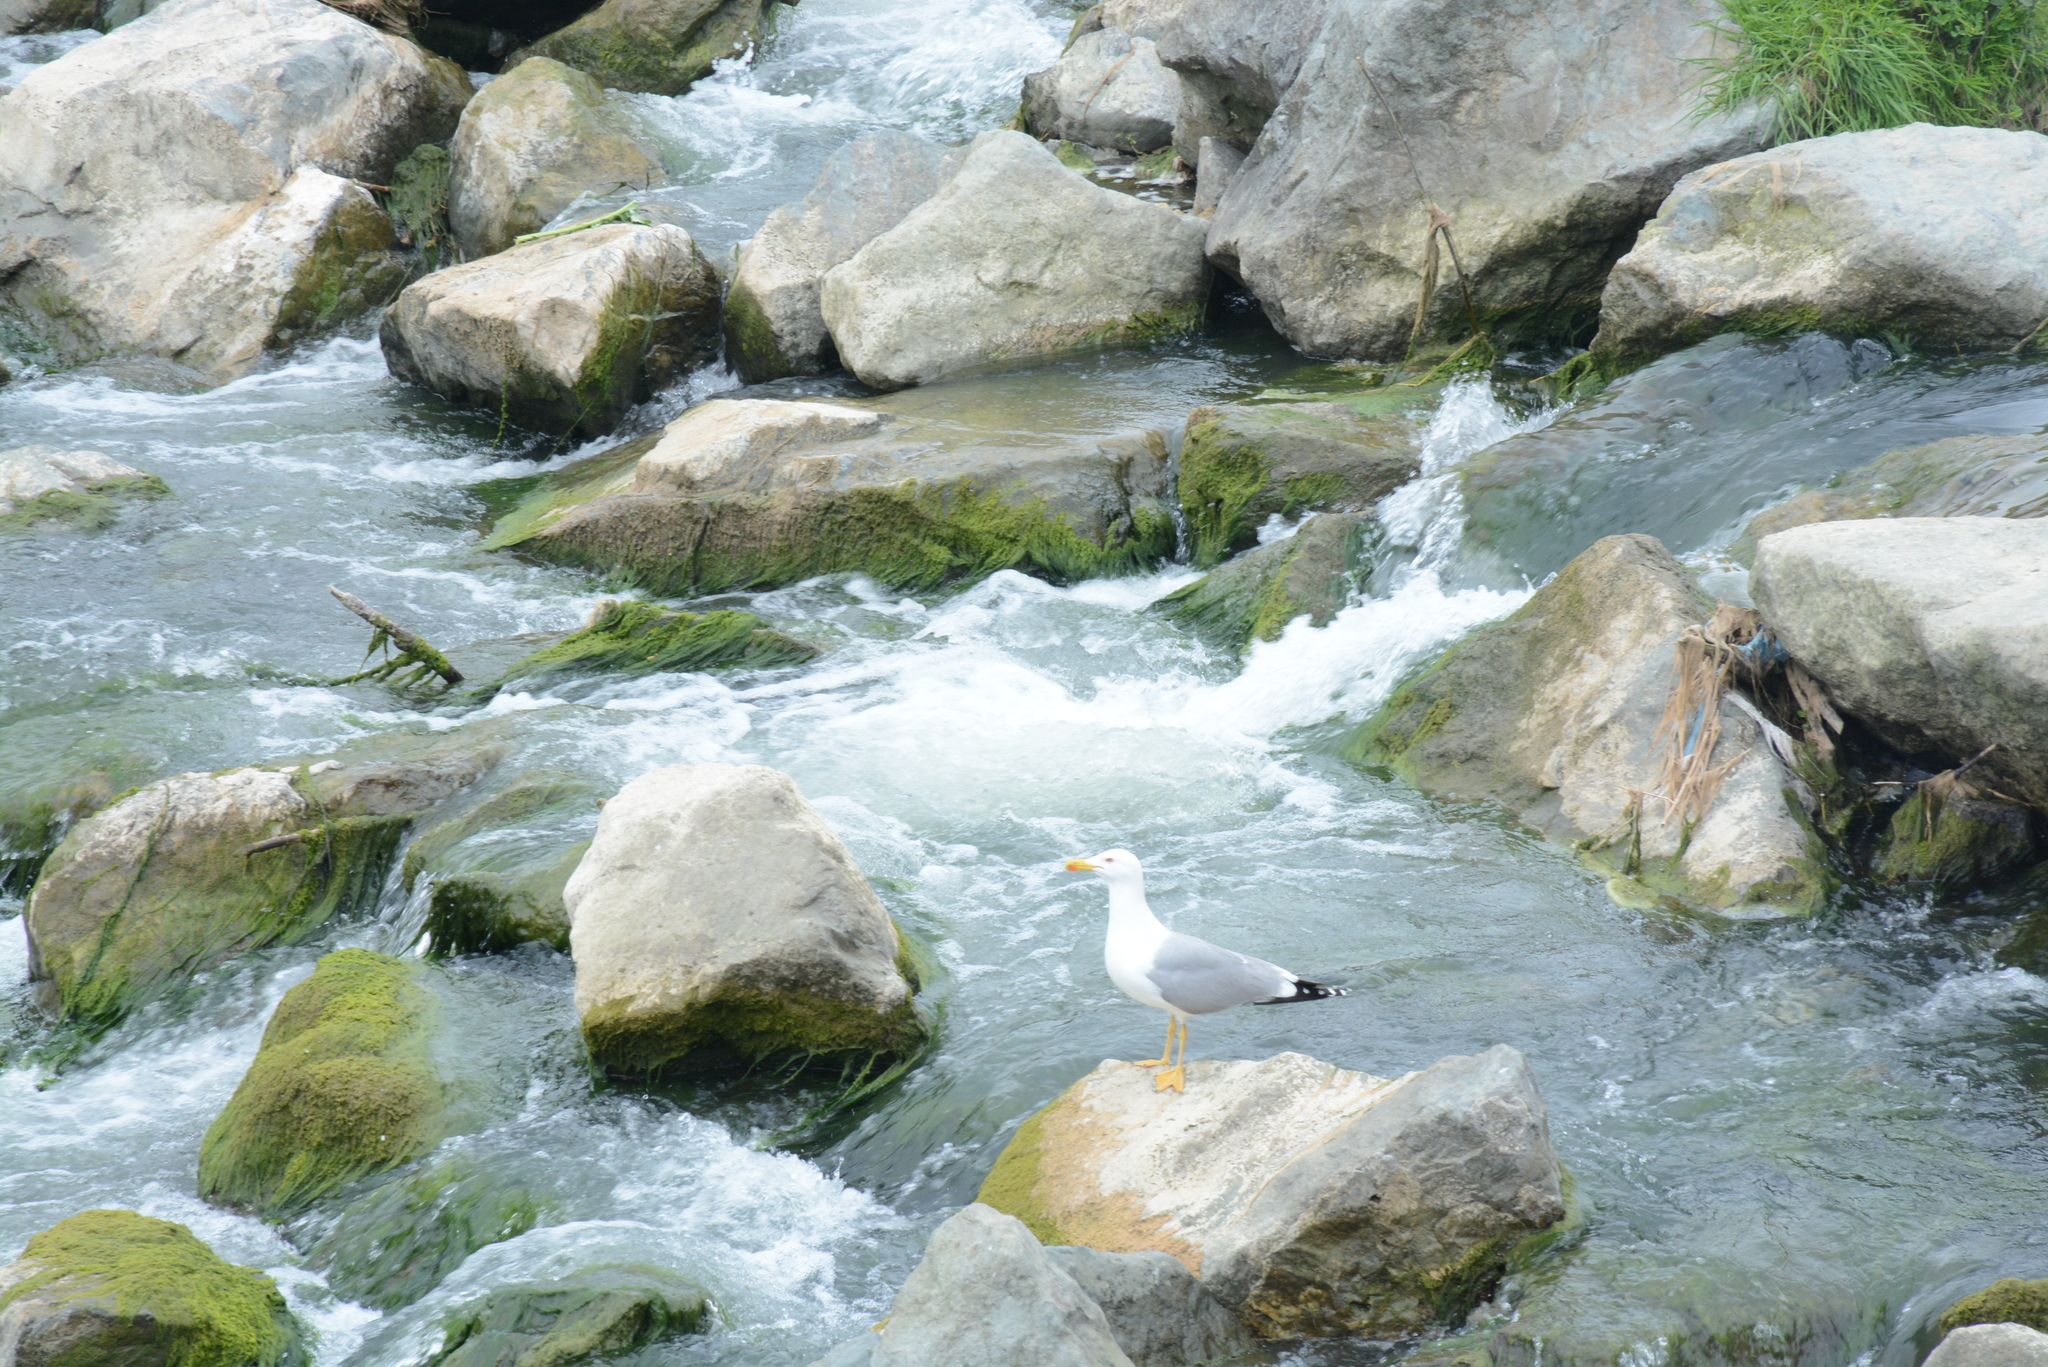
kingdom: Animalia
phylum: Chordata
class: Aves
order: Charadriiformes
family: Laridae
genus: Larus
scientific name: Larus michahellis
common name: Yellow-legged gull
